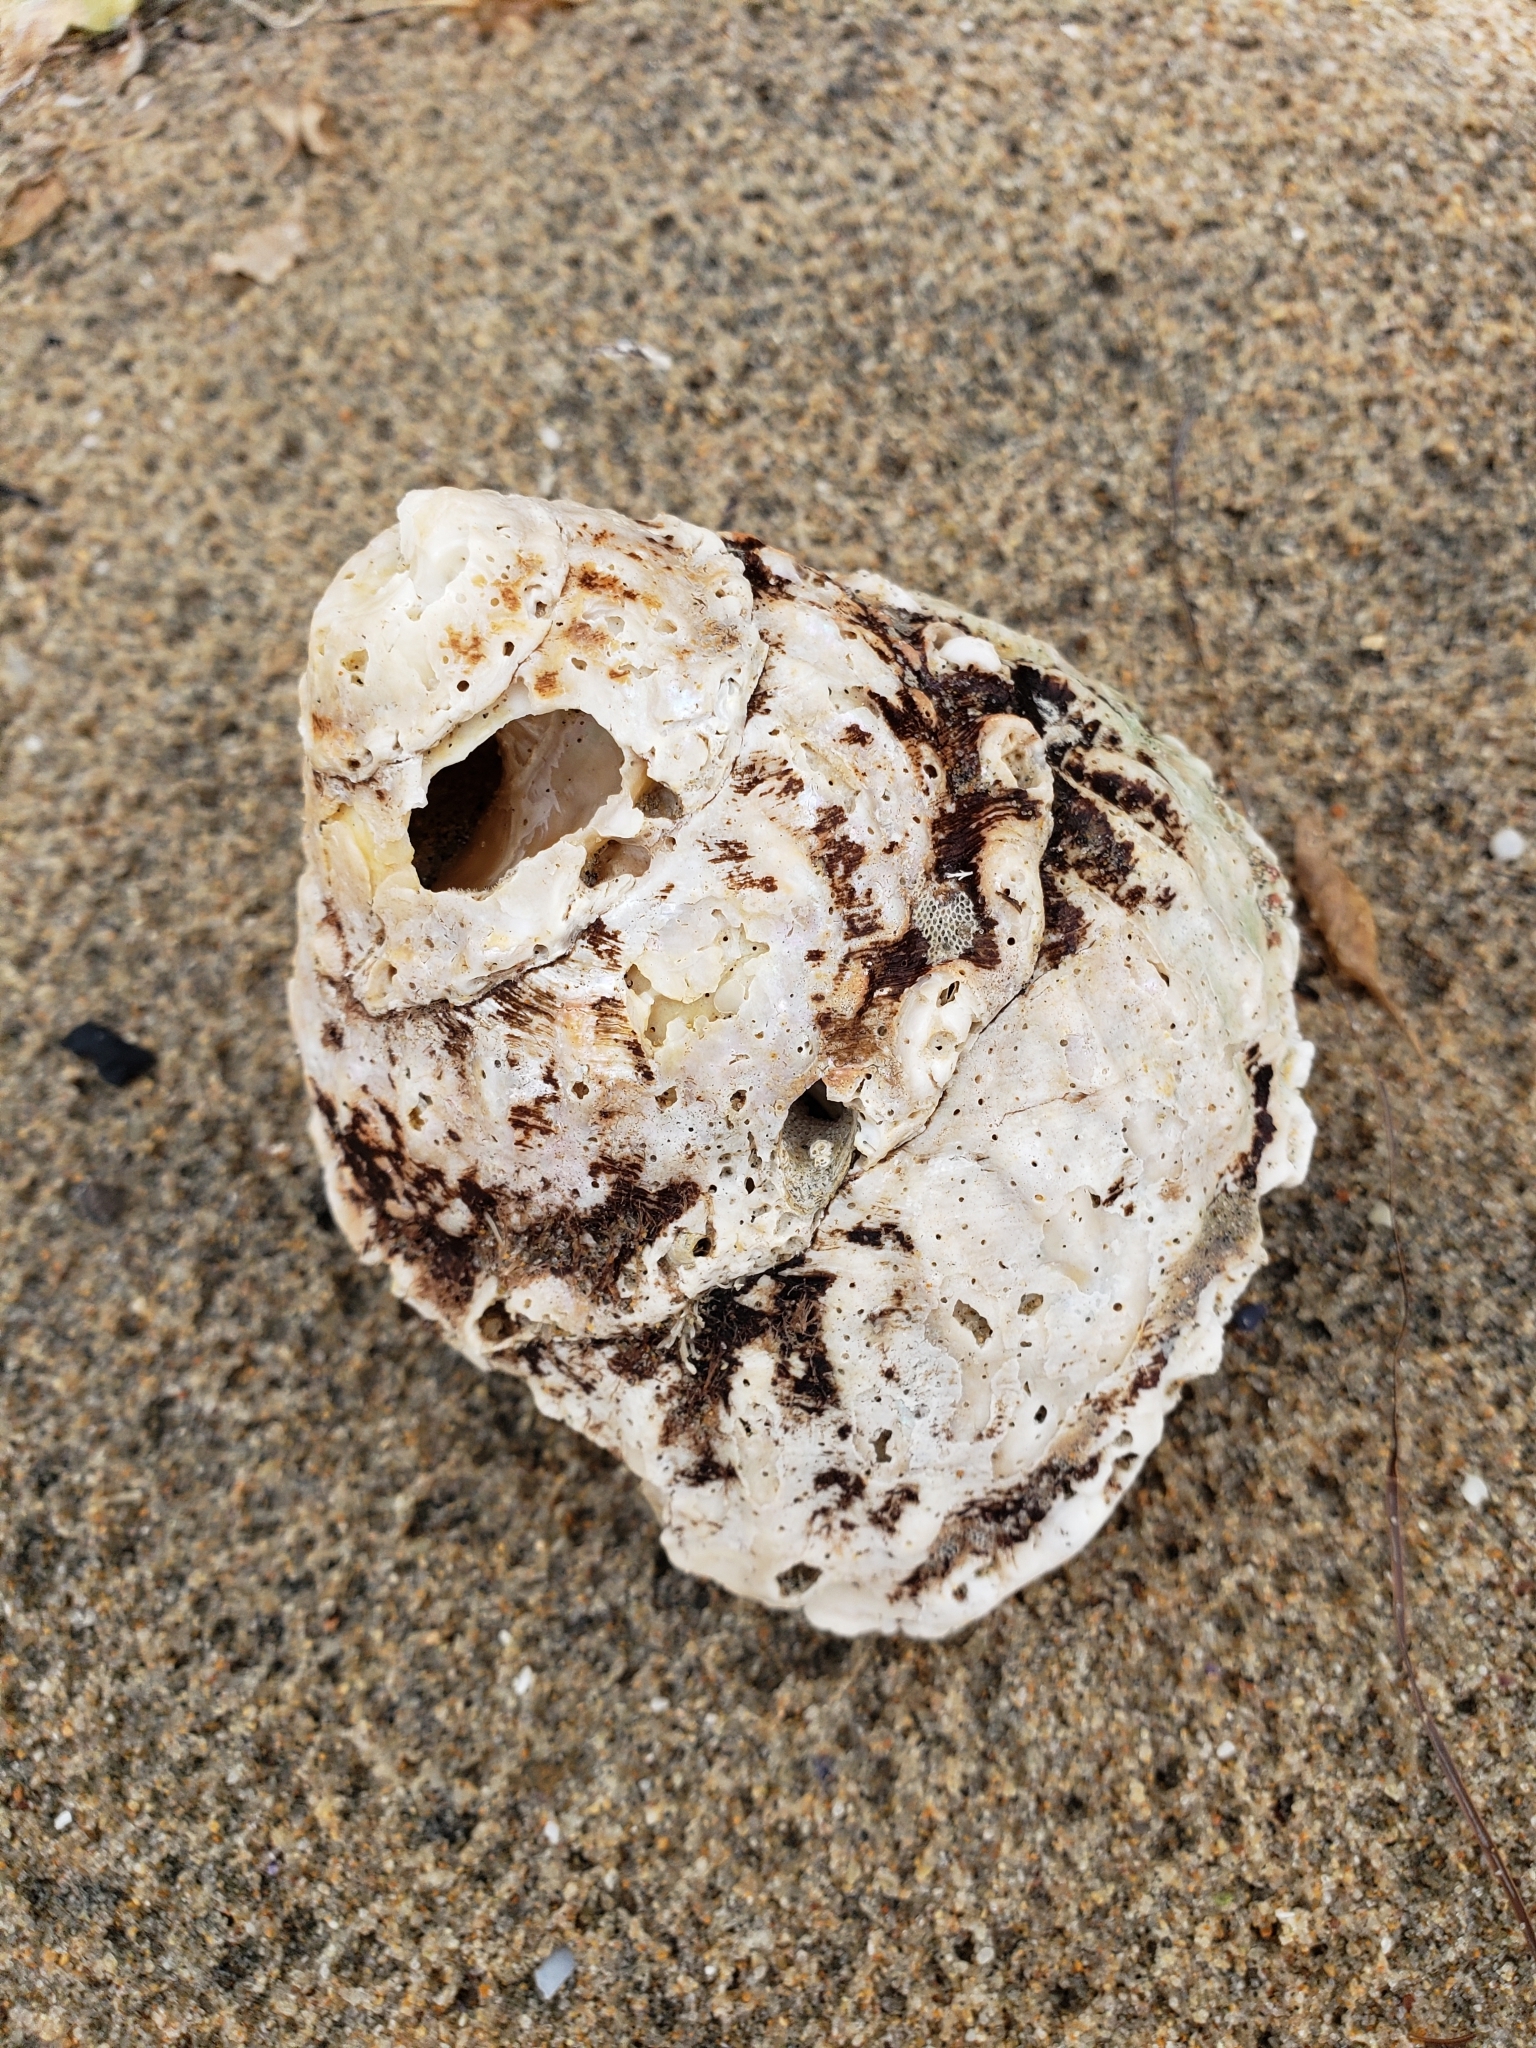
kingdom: Animalia
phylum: Mollusca
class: Gastropoda
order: Trochida
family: Turbinidae
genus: Megastraea
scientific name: Megastraea undosa
